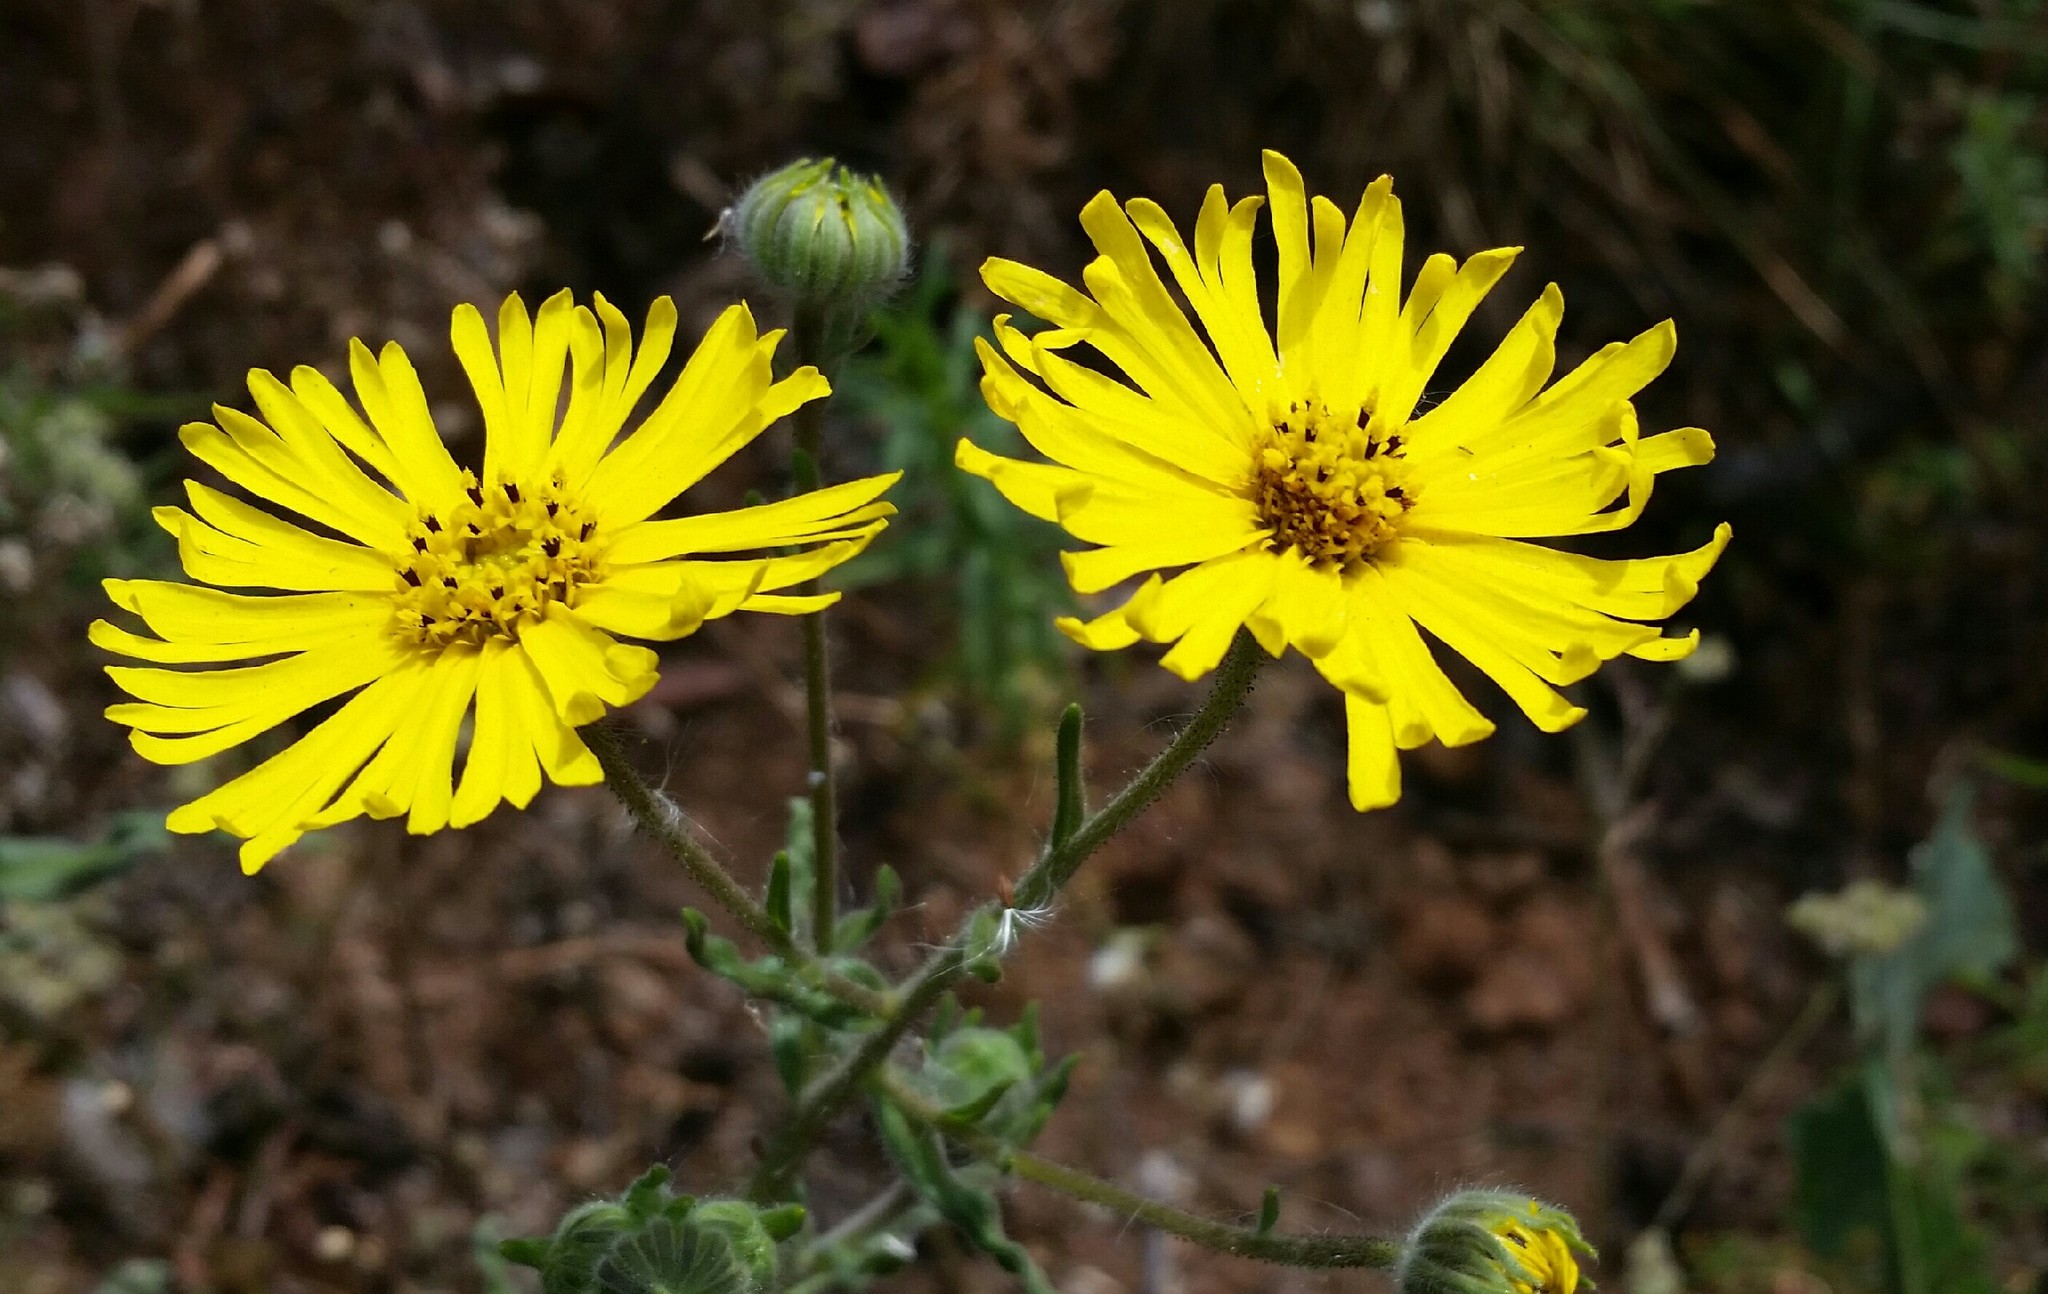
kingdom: Plantae
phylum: Tracheophyta
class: Magnoliopsida
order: Asterales
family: Asteraceae
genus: Madia
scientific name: Madia elegans
